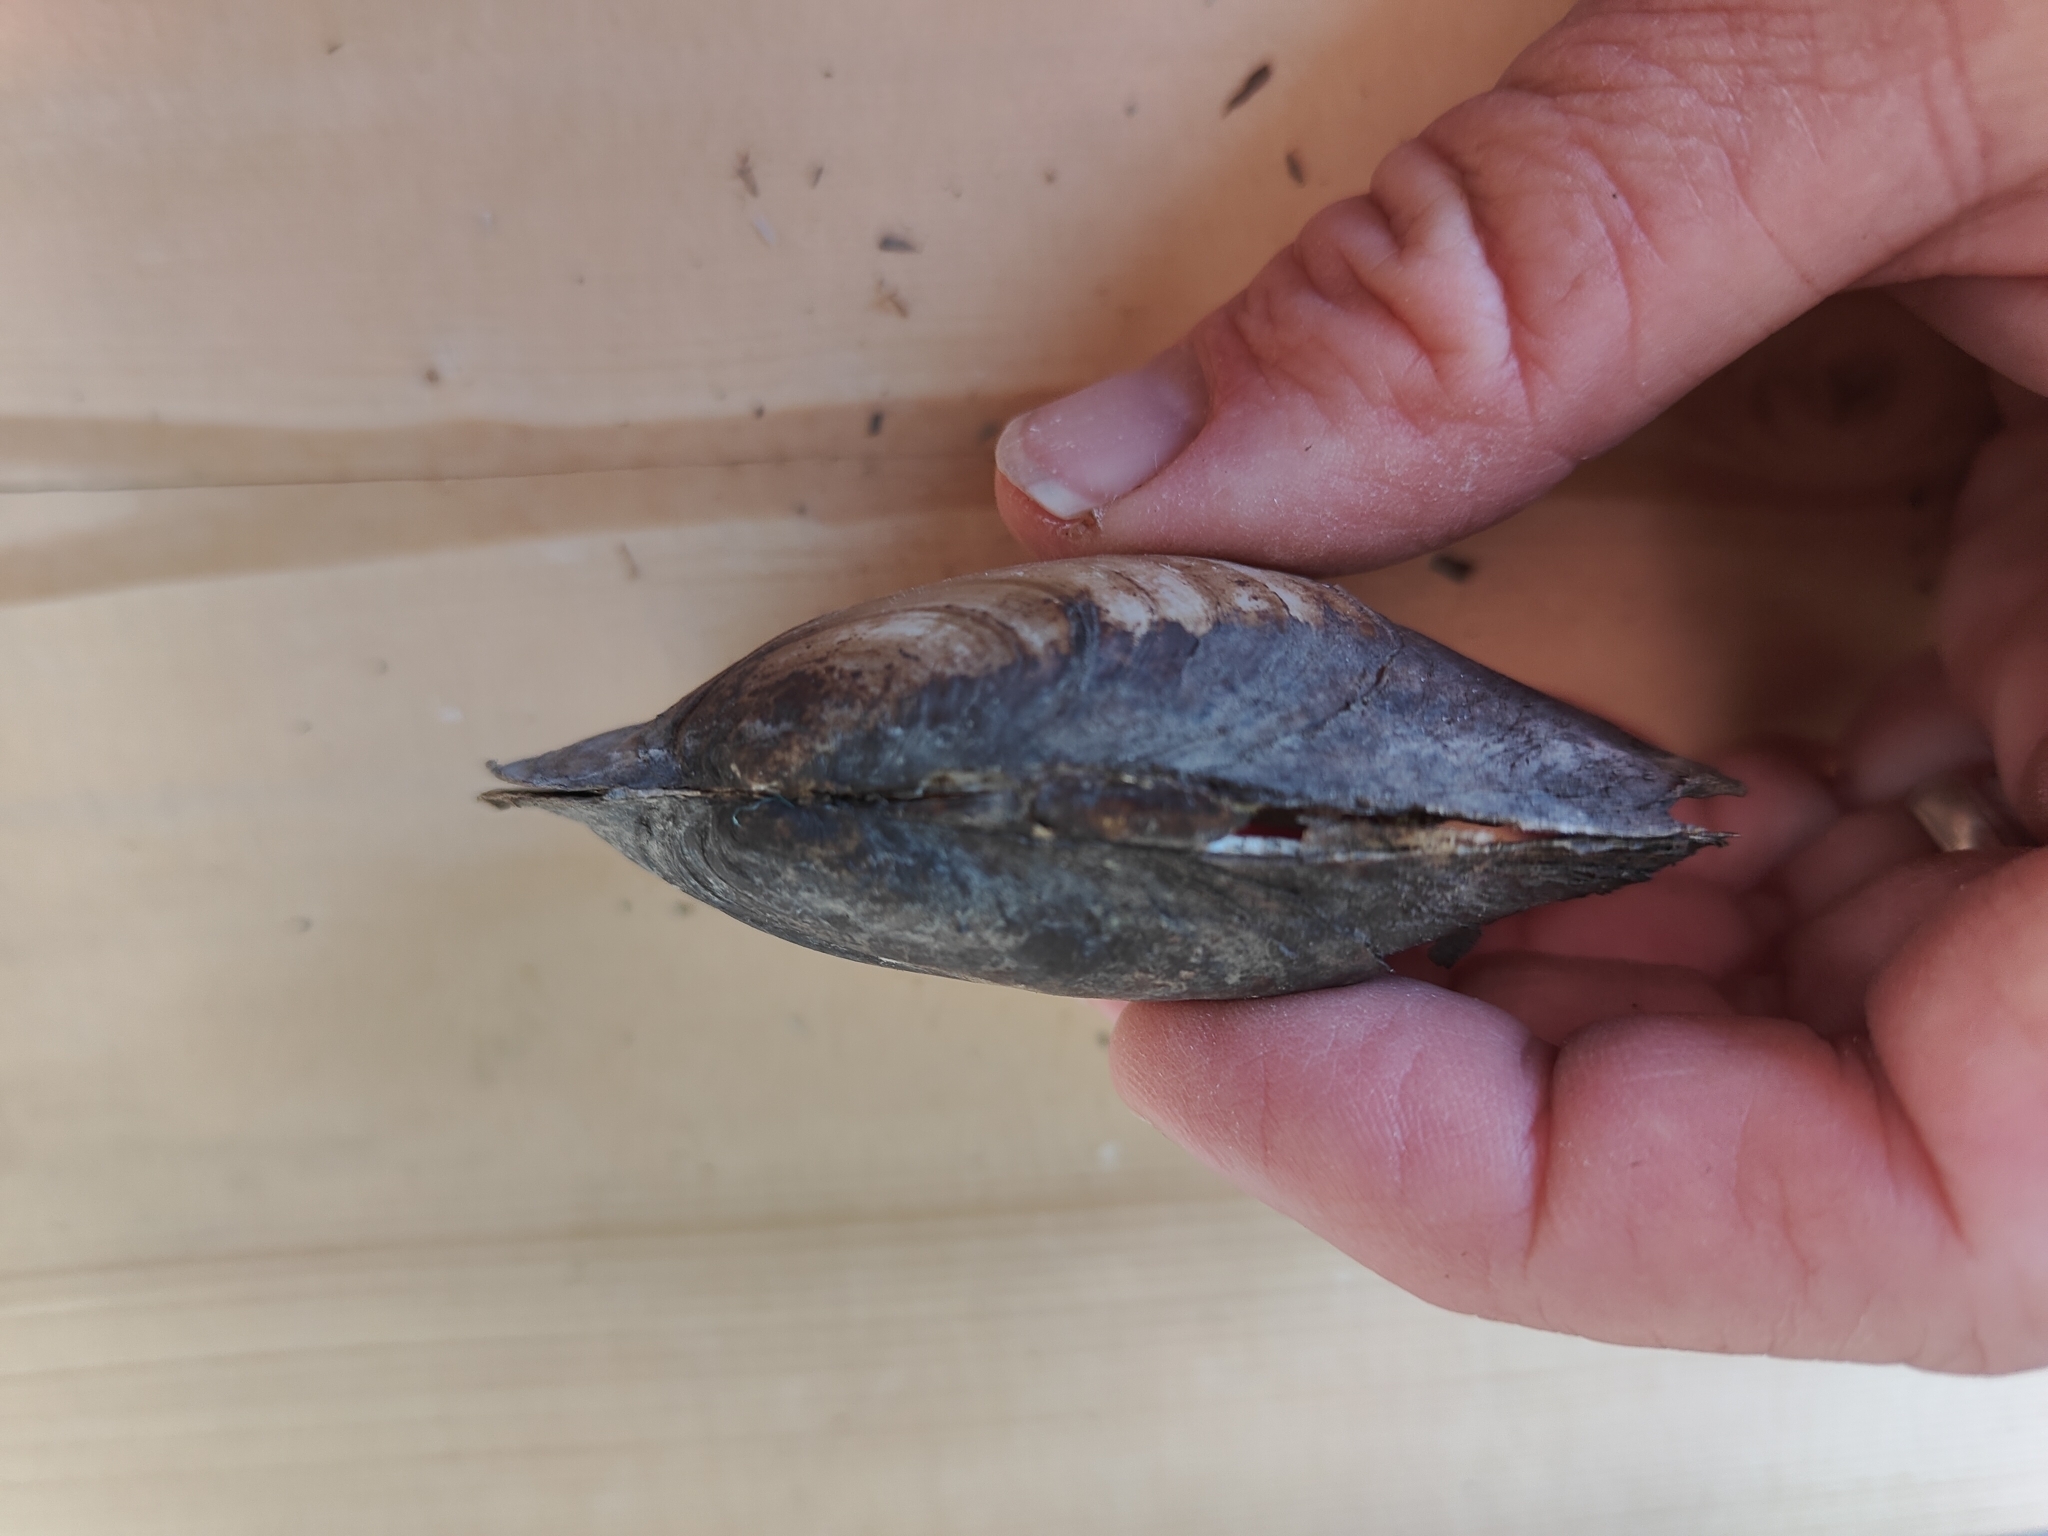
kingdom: Animalia
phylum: Mollusca
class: Bivalvia
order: Unionida
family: Unionidae
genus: Potamilus
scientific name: Potamilus fragilis
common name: Fragile papershell
